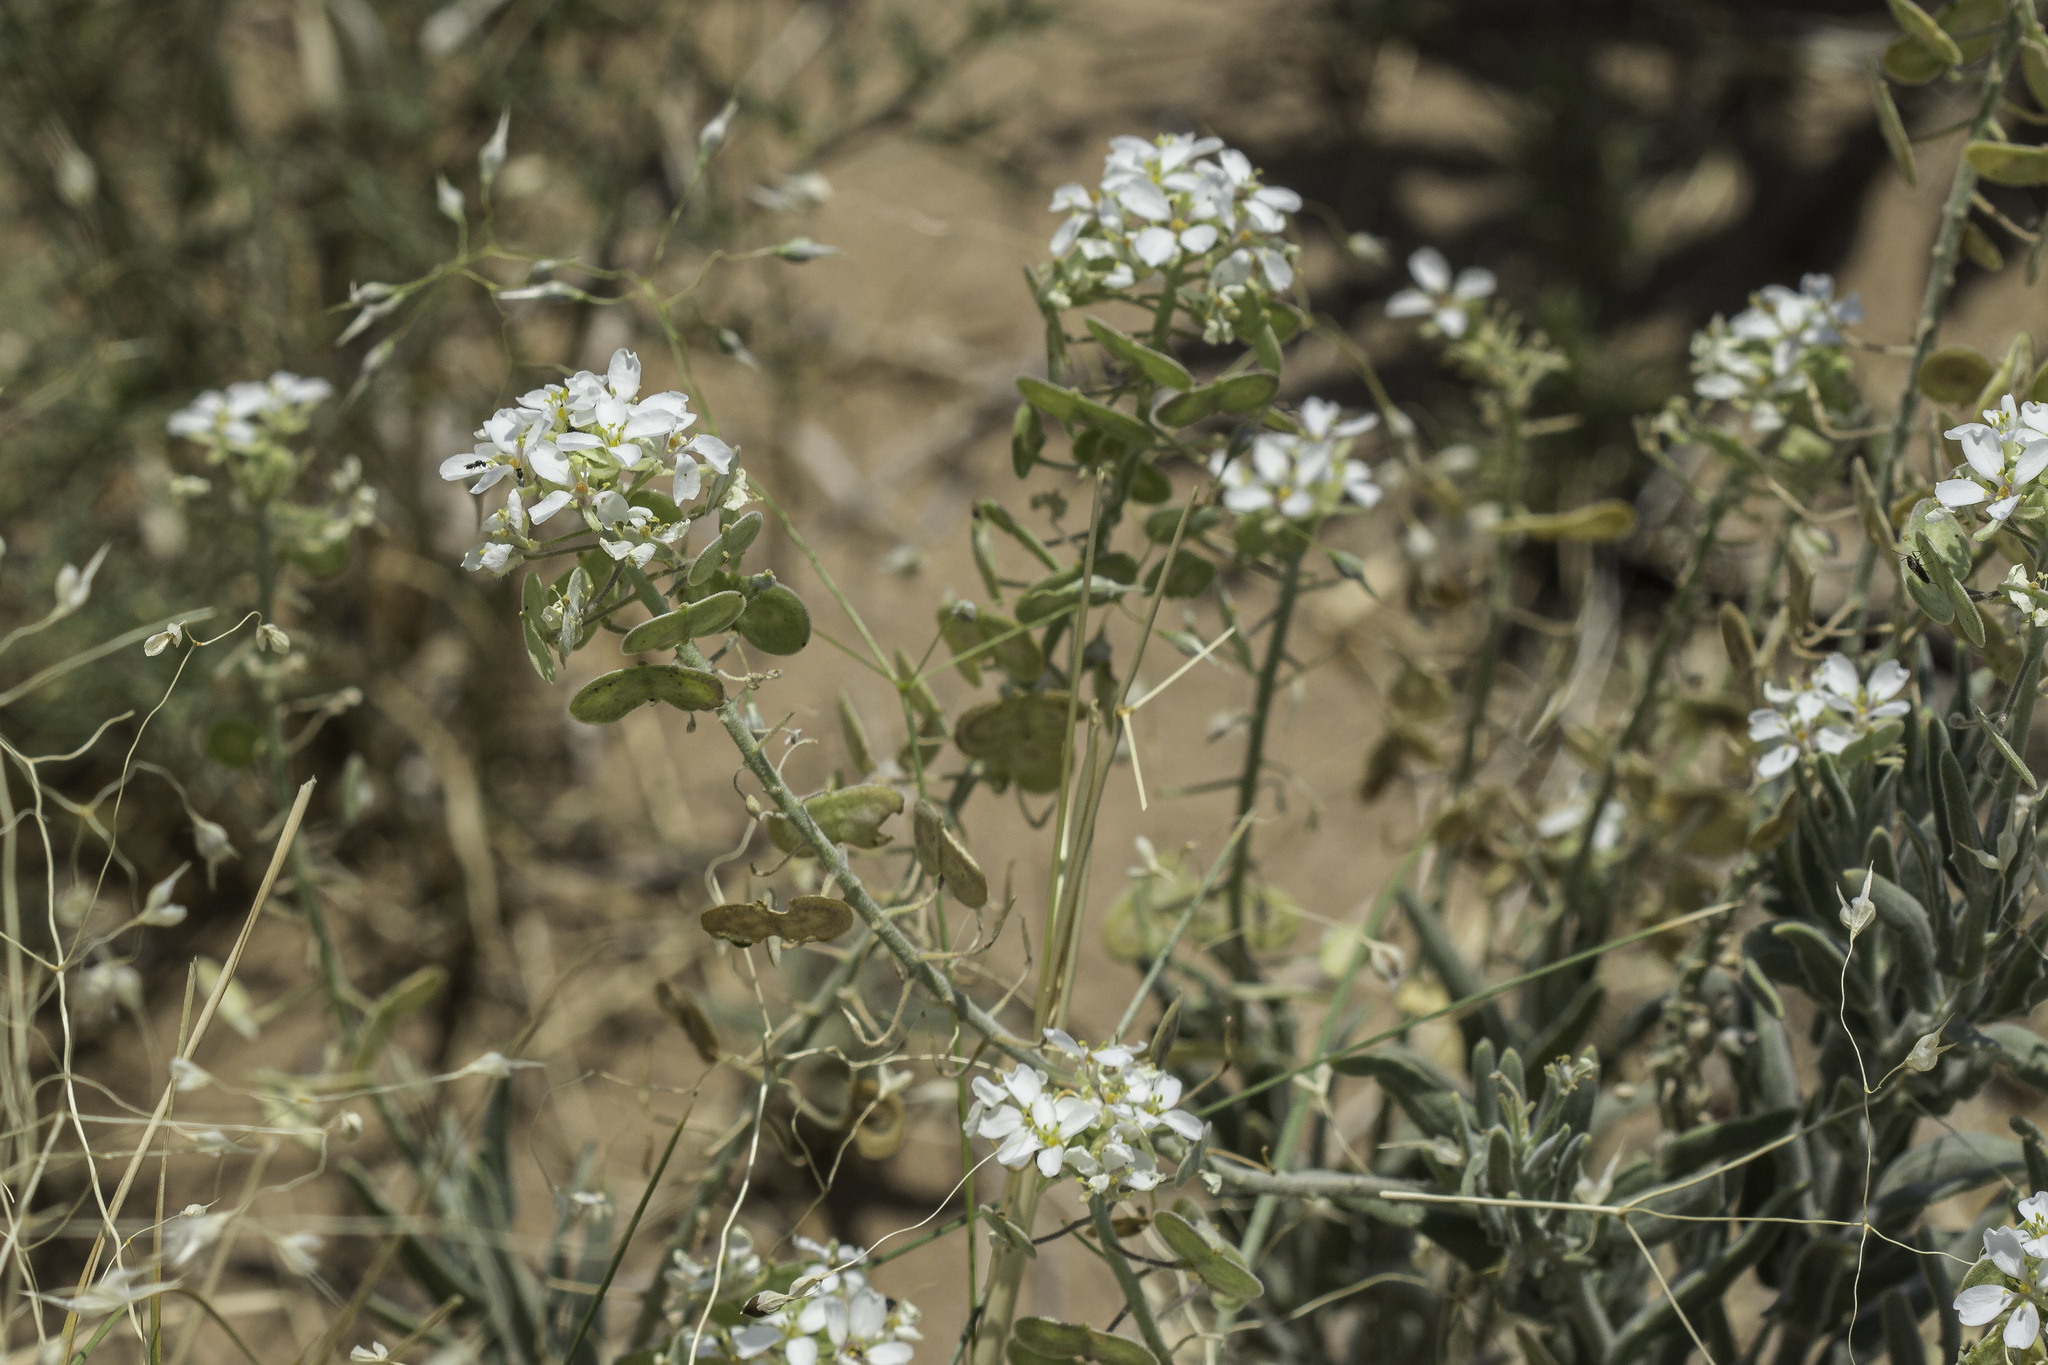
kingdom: Plantae
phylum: Tracheophyta
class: Magnoliopsida
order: Brassicales
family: Brassicaceae
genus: Dimorphocarpa
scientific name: Dimorphocarpa wislizenii
